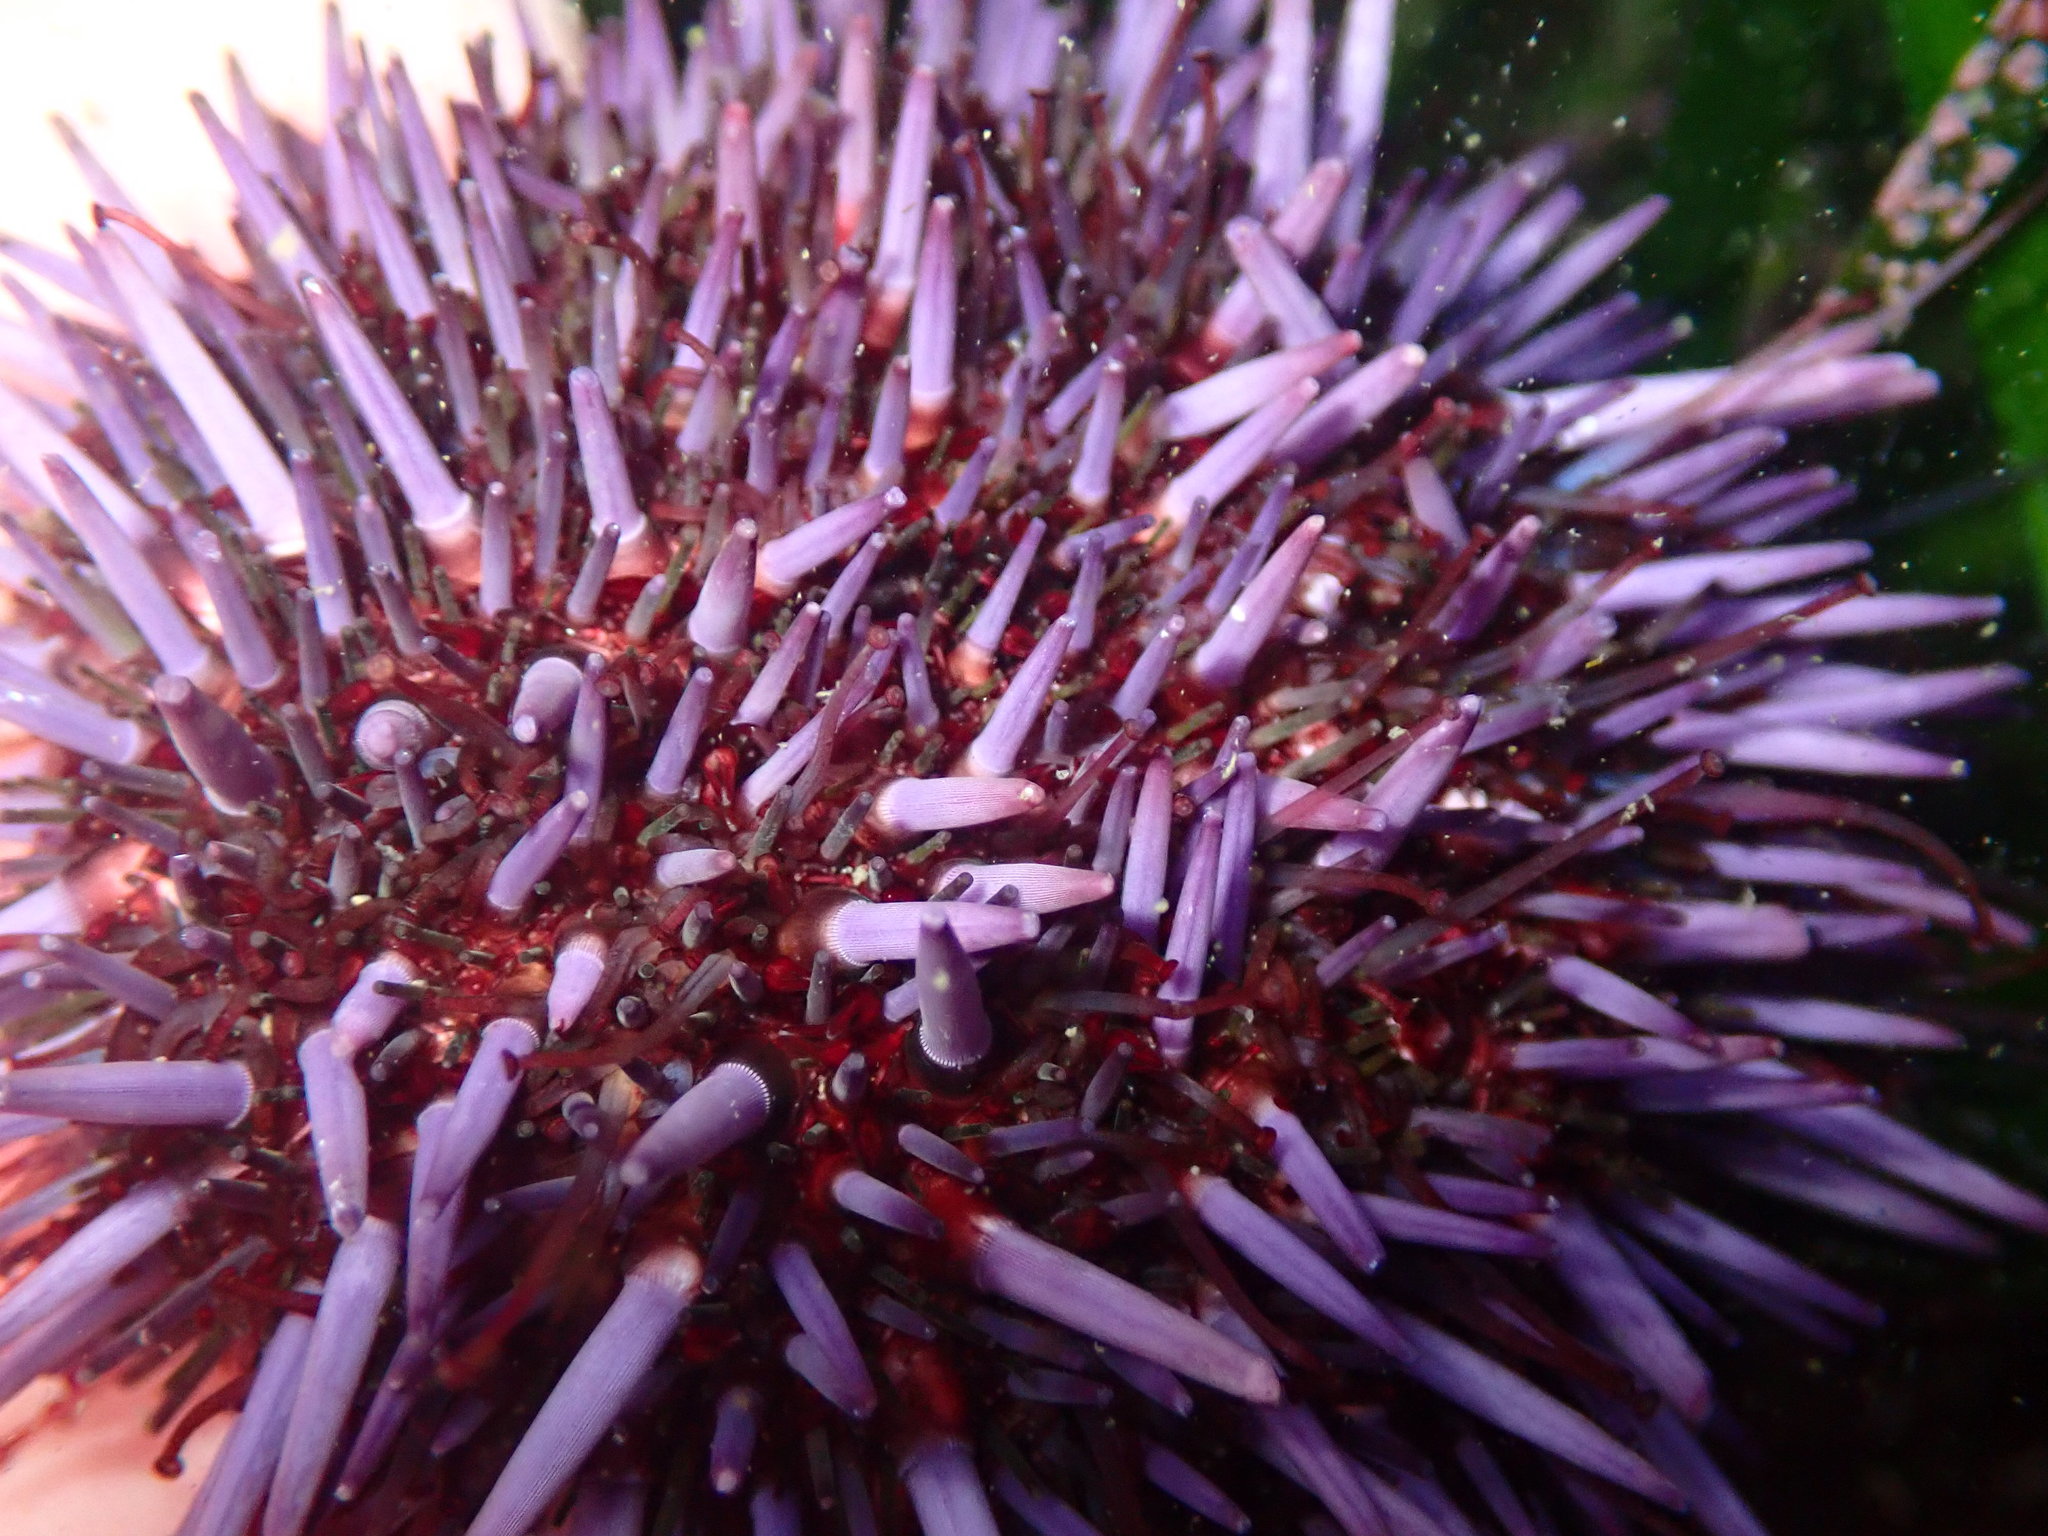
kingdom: Animalia
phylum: Echinodermata
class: Echinoidea
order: Camarodonta
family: Strongylocentrotidae
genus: Strongylocentrotus
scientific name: Strongylocentrotus purpuratus
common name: Purple sea urchin
